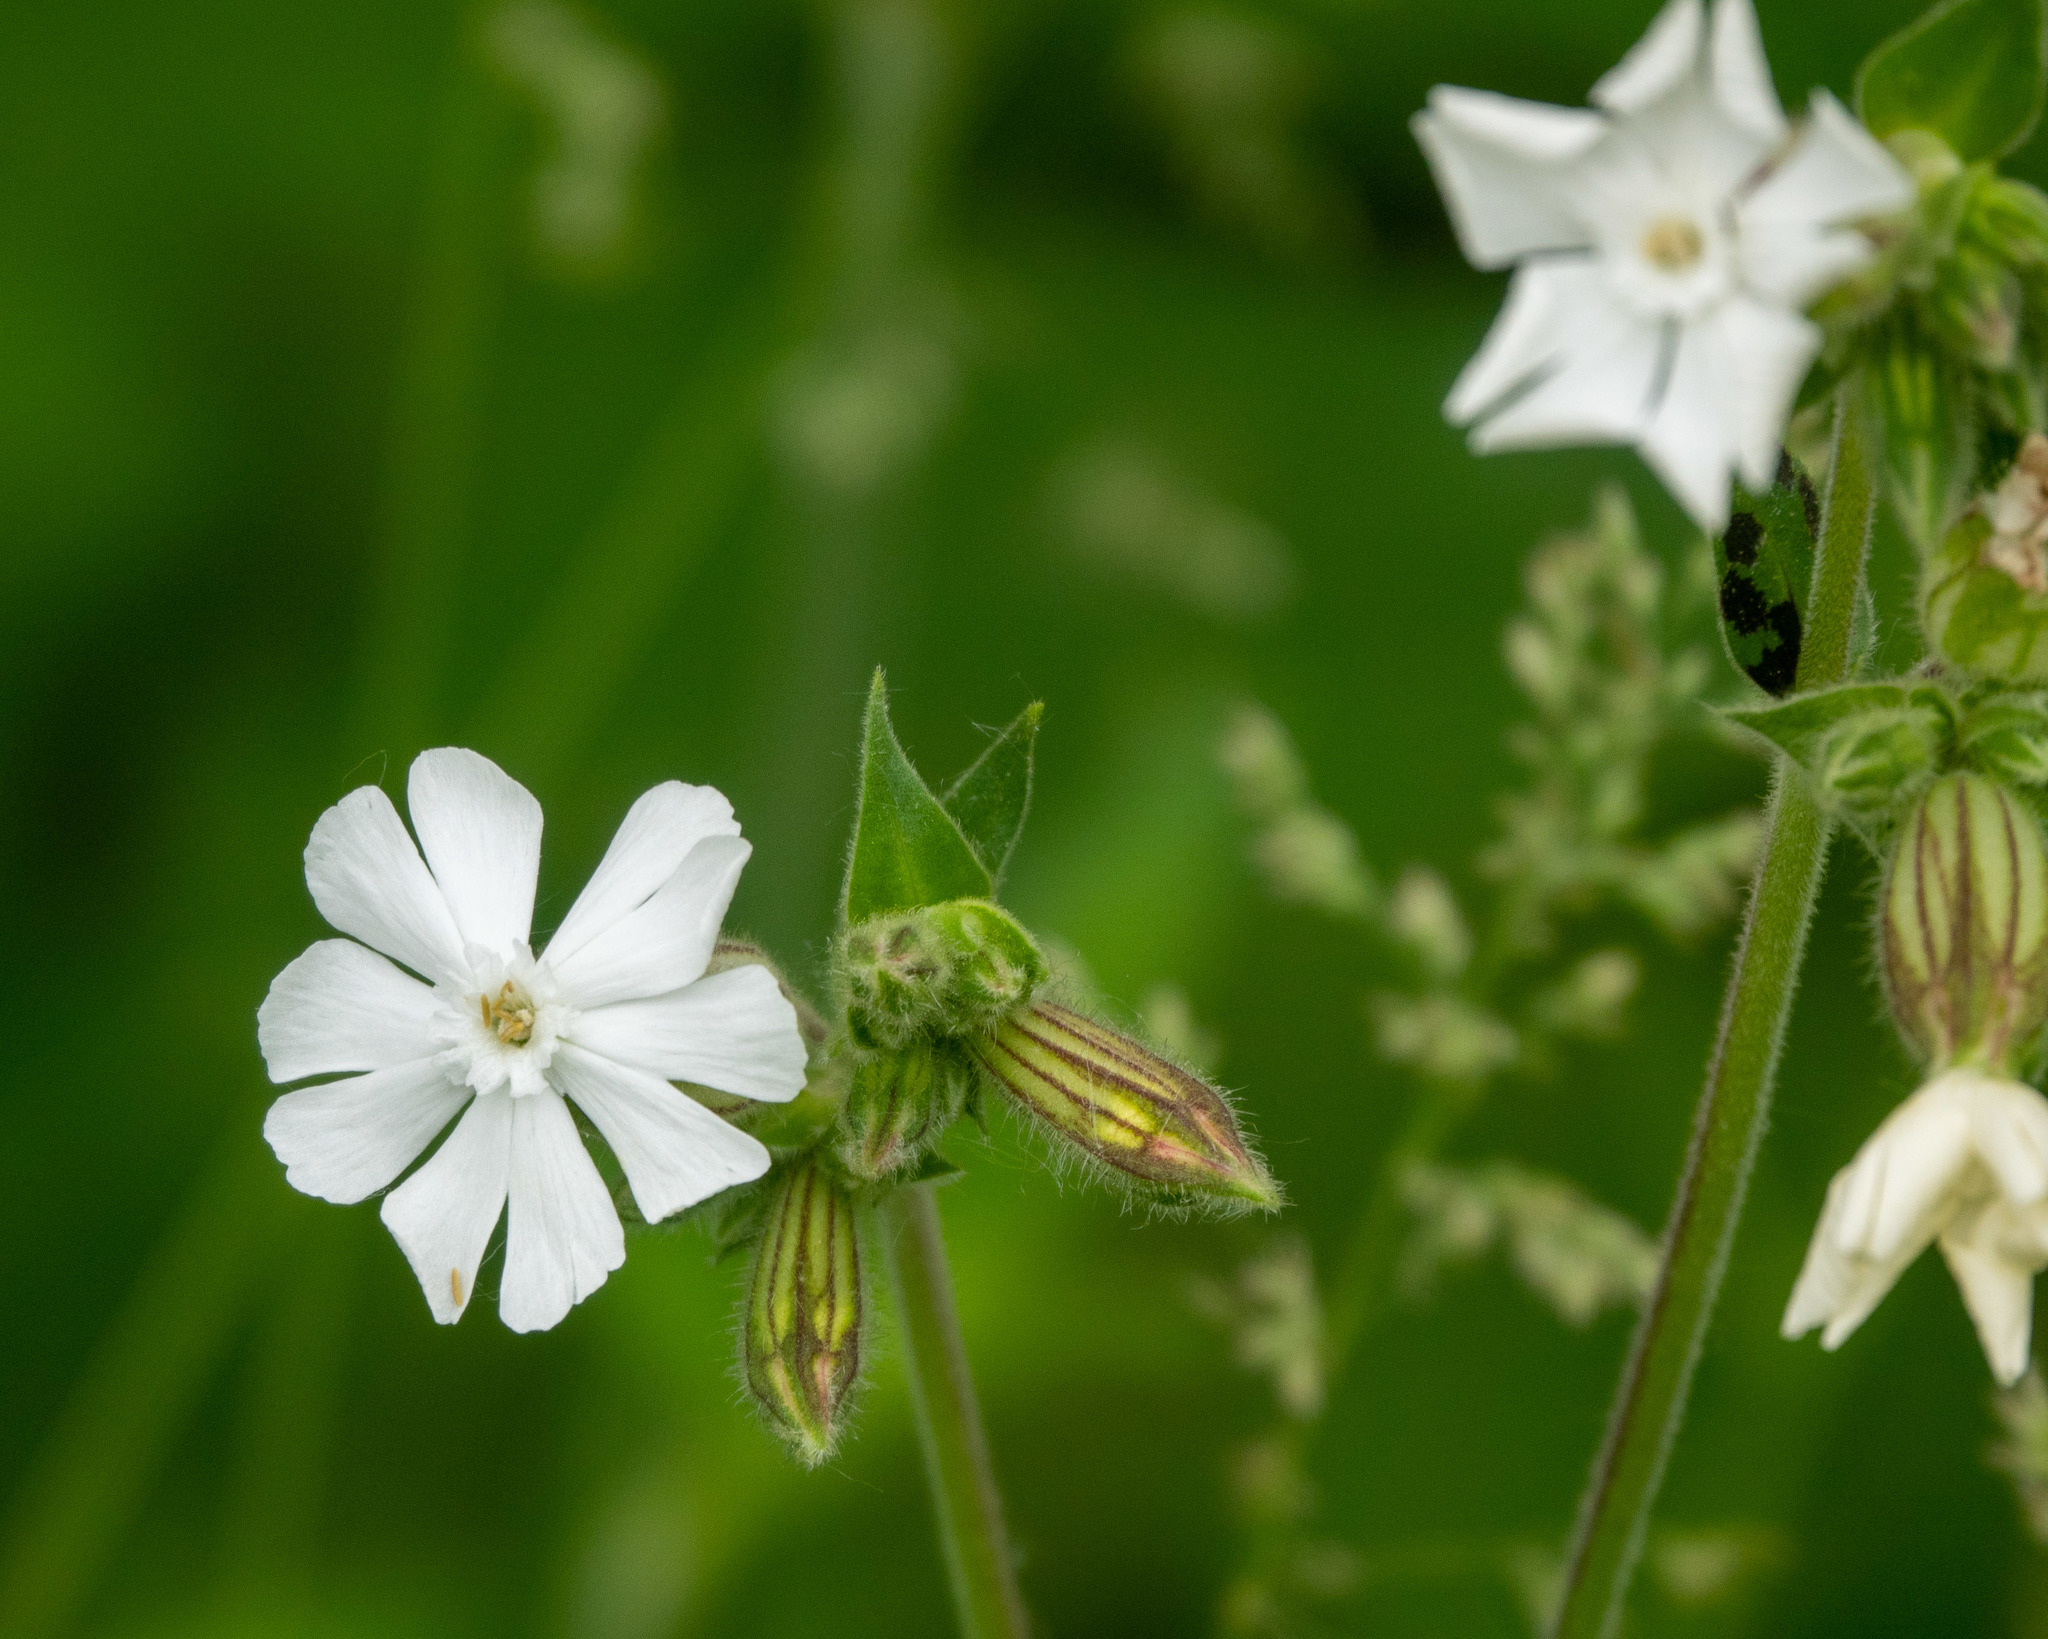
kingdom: Plantae
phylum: Tracheophyta
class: Magnoliopsida
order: Caryophyllales
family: Caryophyllaceae
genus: Silene
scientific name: Silene latifolia
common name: White campion
